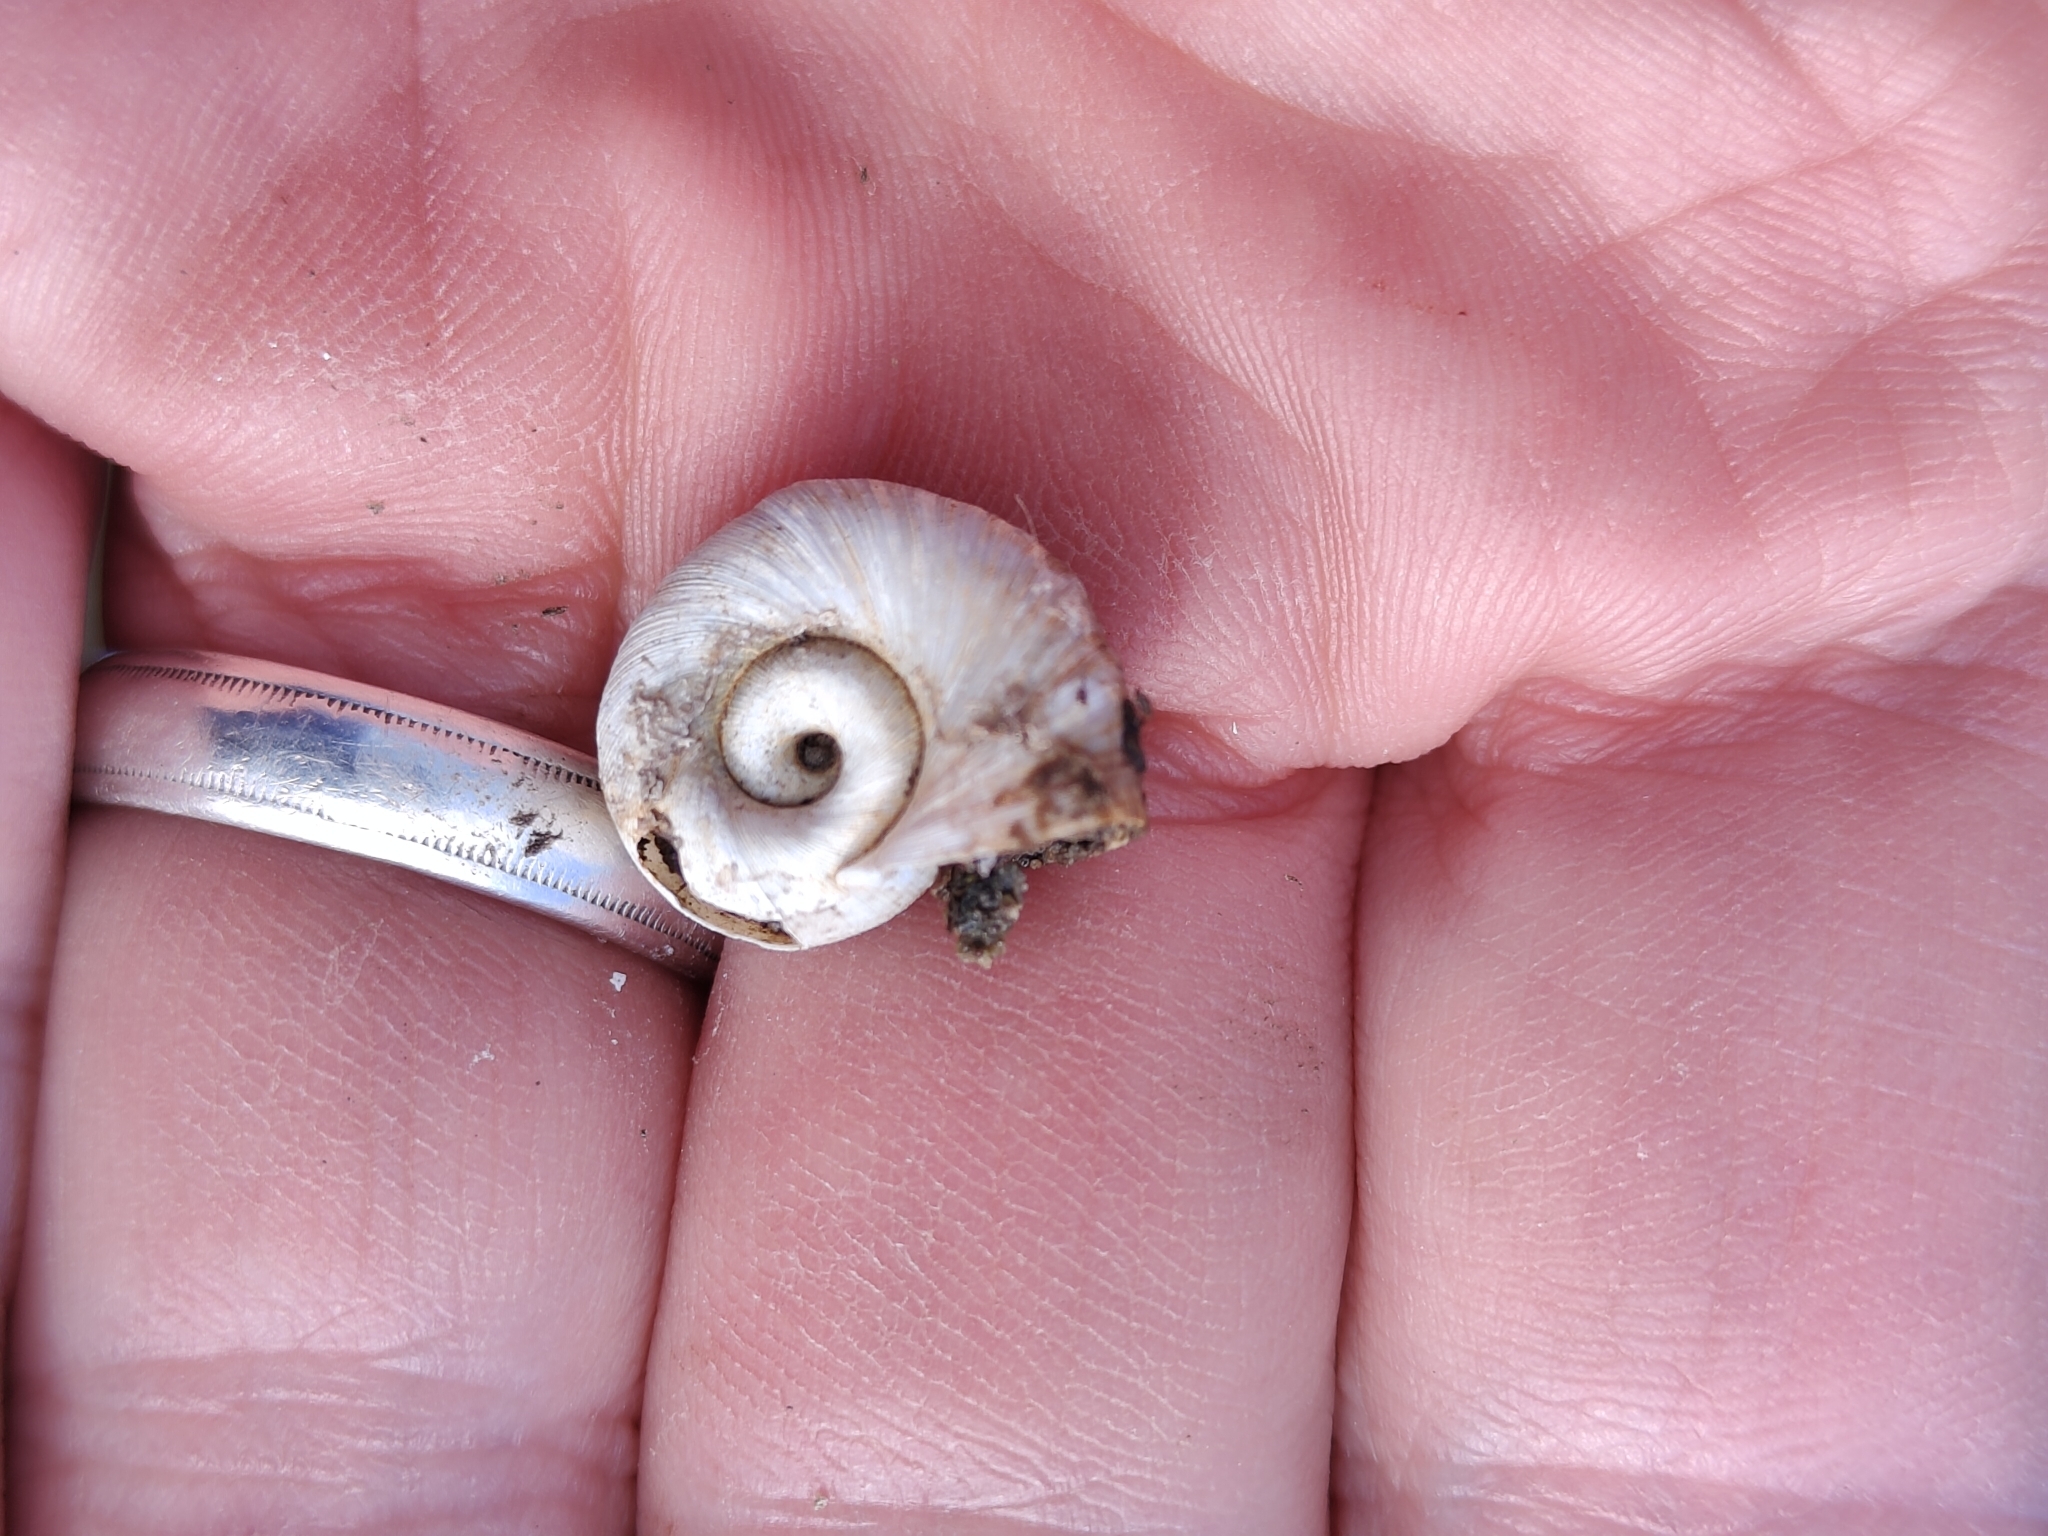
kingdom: Animalia
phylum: Mollusca
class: Gastropoda
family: Planorbidae
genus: Planorbella
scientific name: Planorbella trivolvis
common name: Marsh rams-horn
